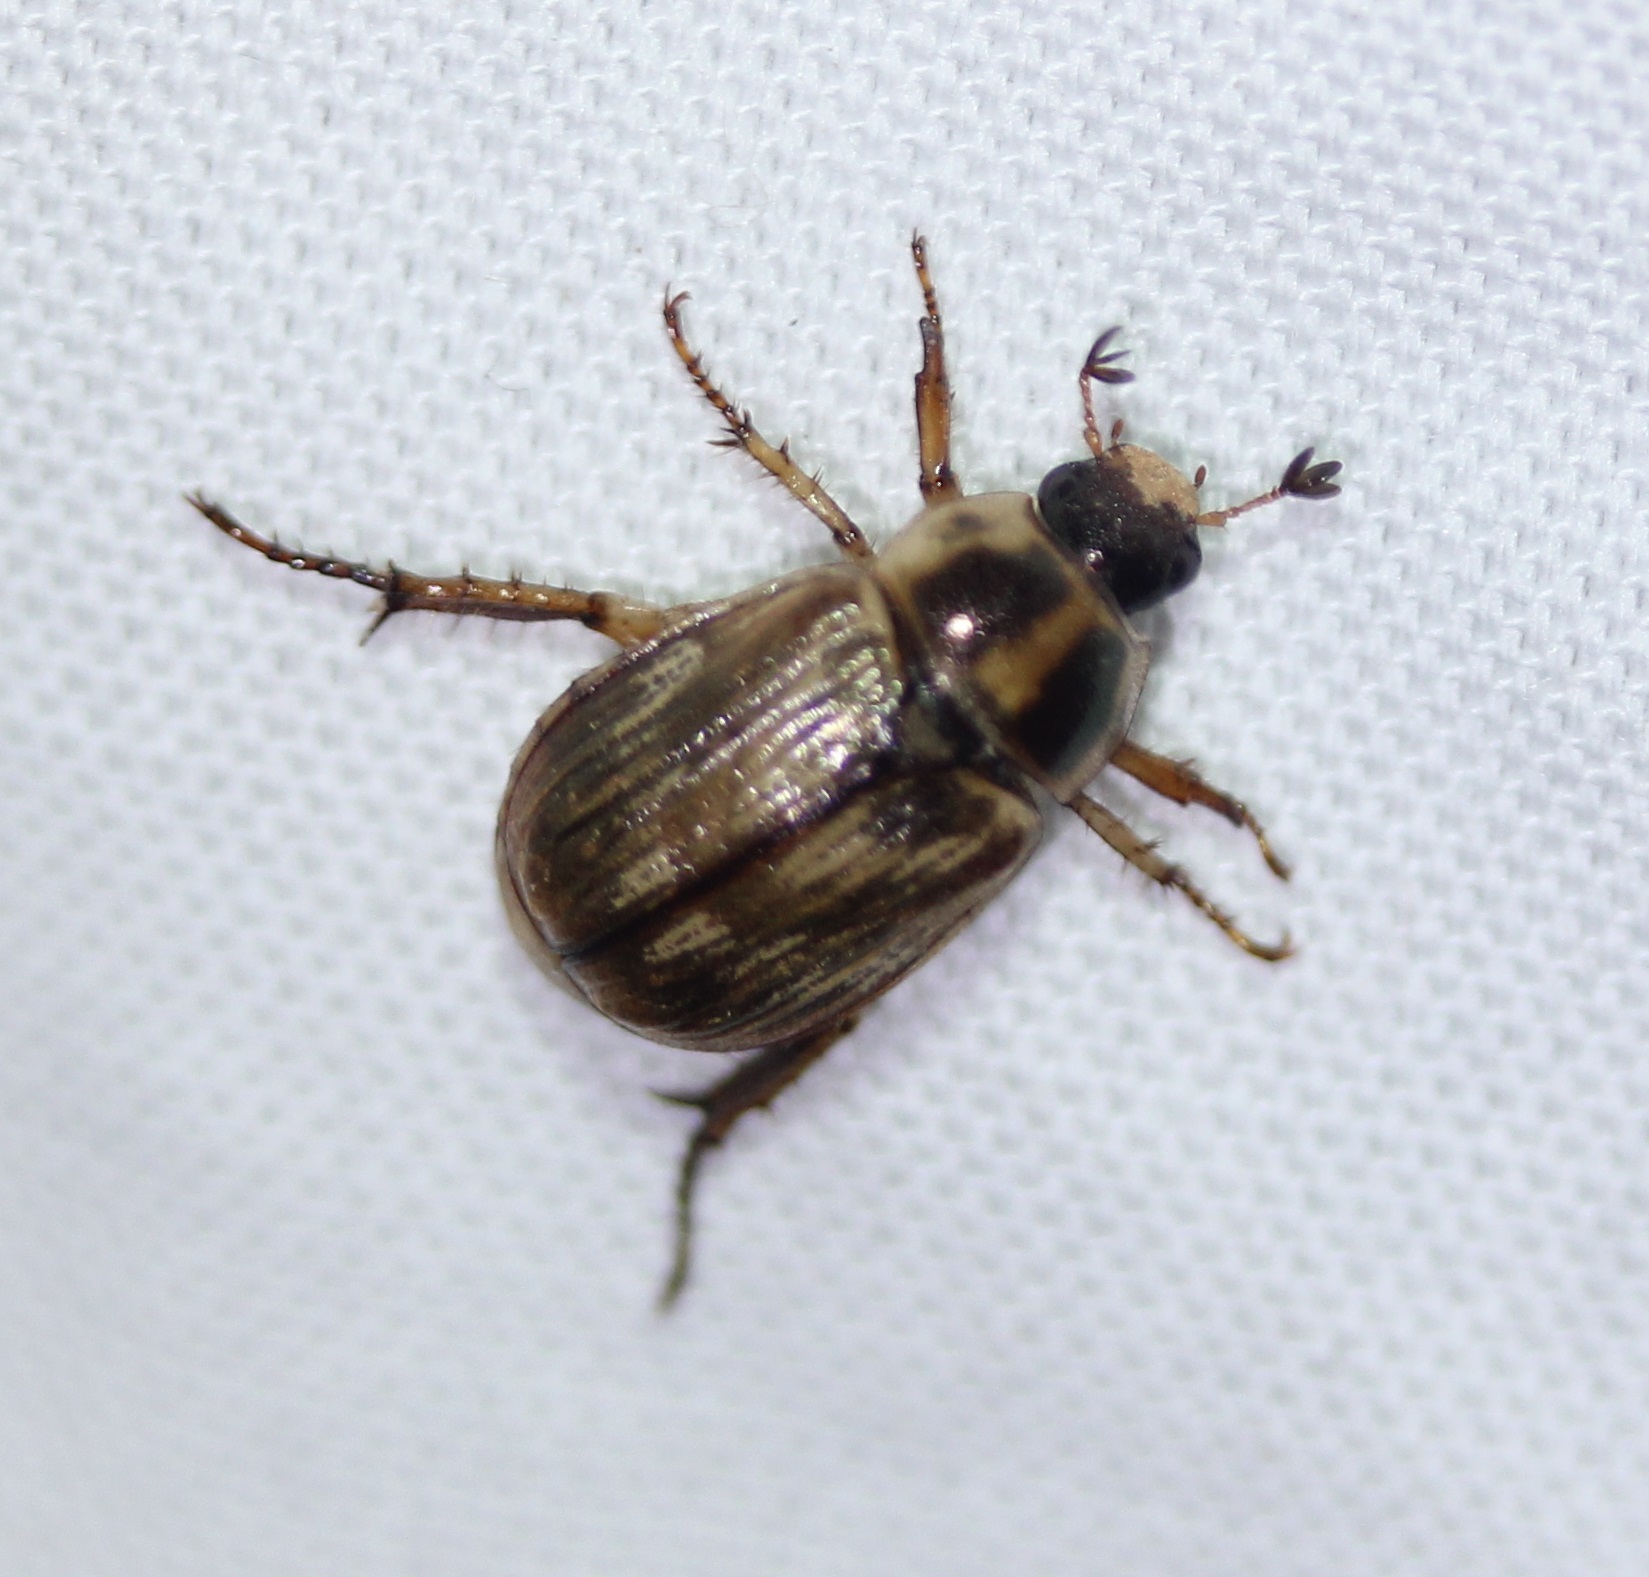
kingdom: Animalia
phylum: Arthropoda
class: Insecta
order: Coleoptera
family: Scarabaeidae
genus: Exomala
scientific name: Exomala orientalis
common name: Oriental beetle
